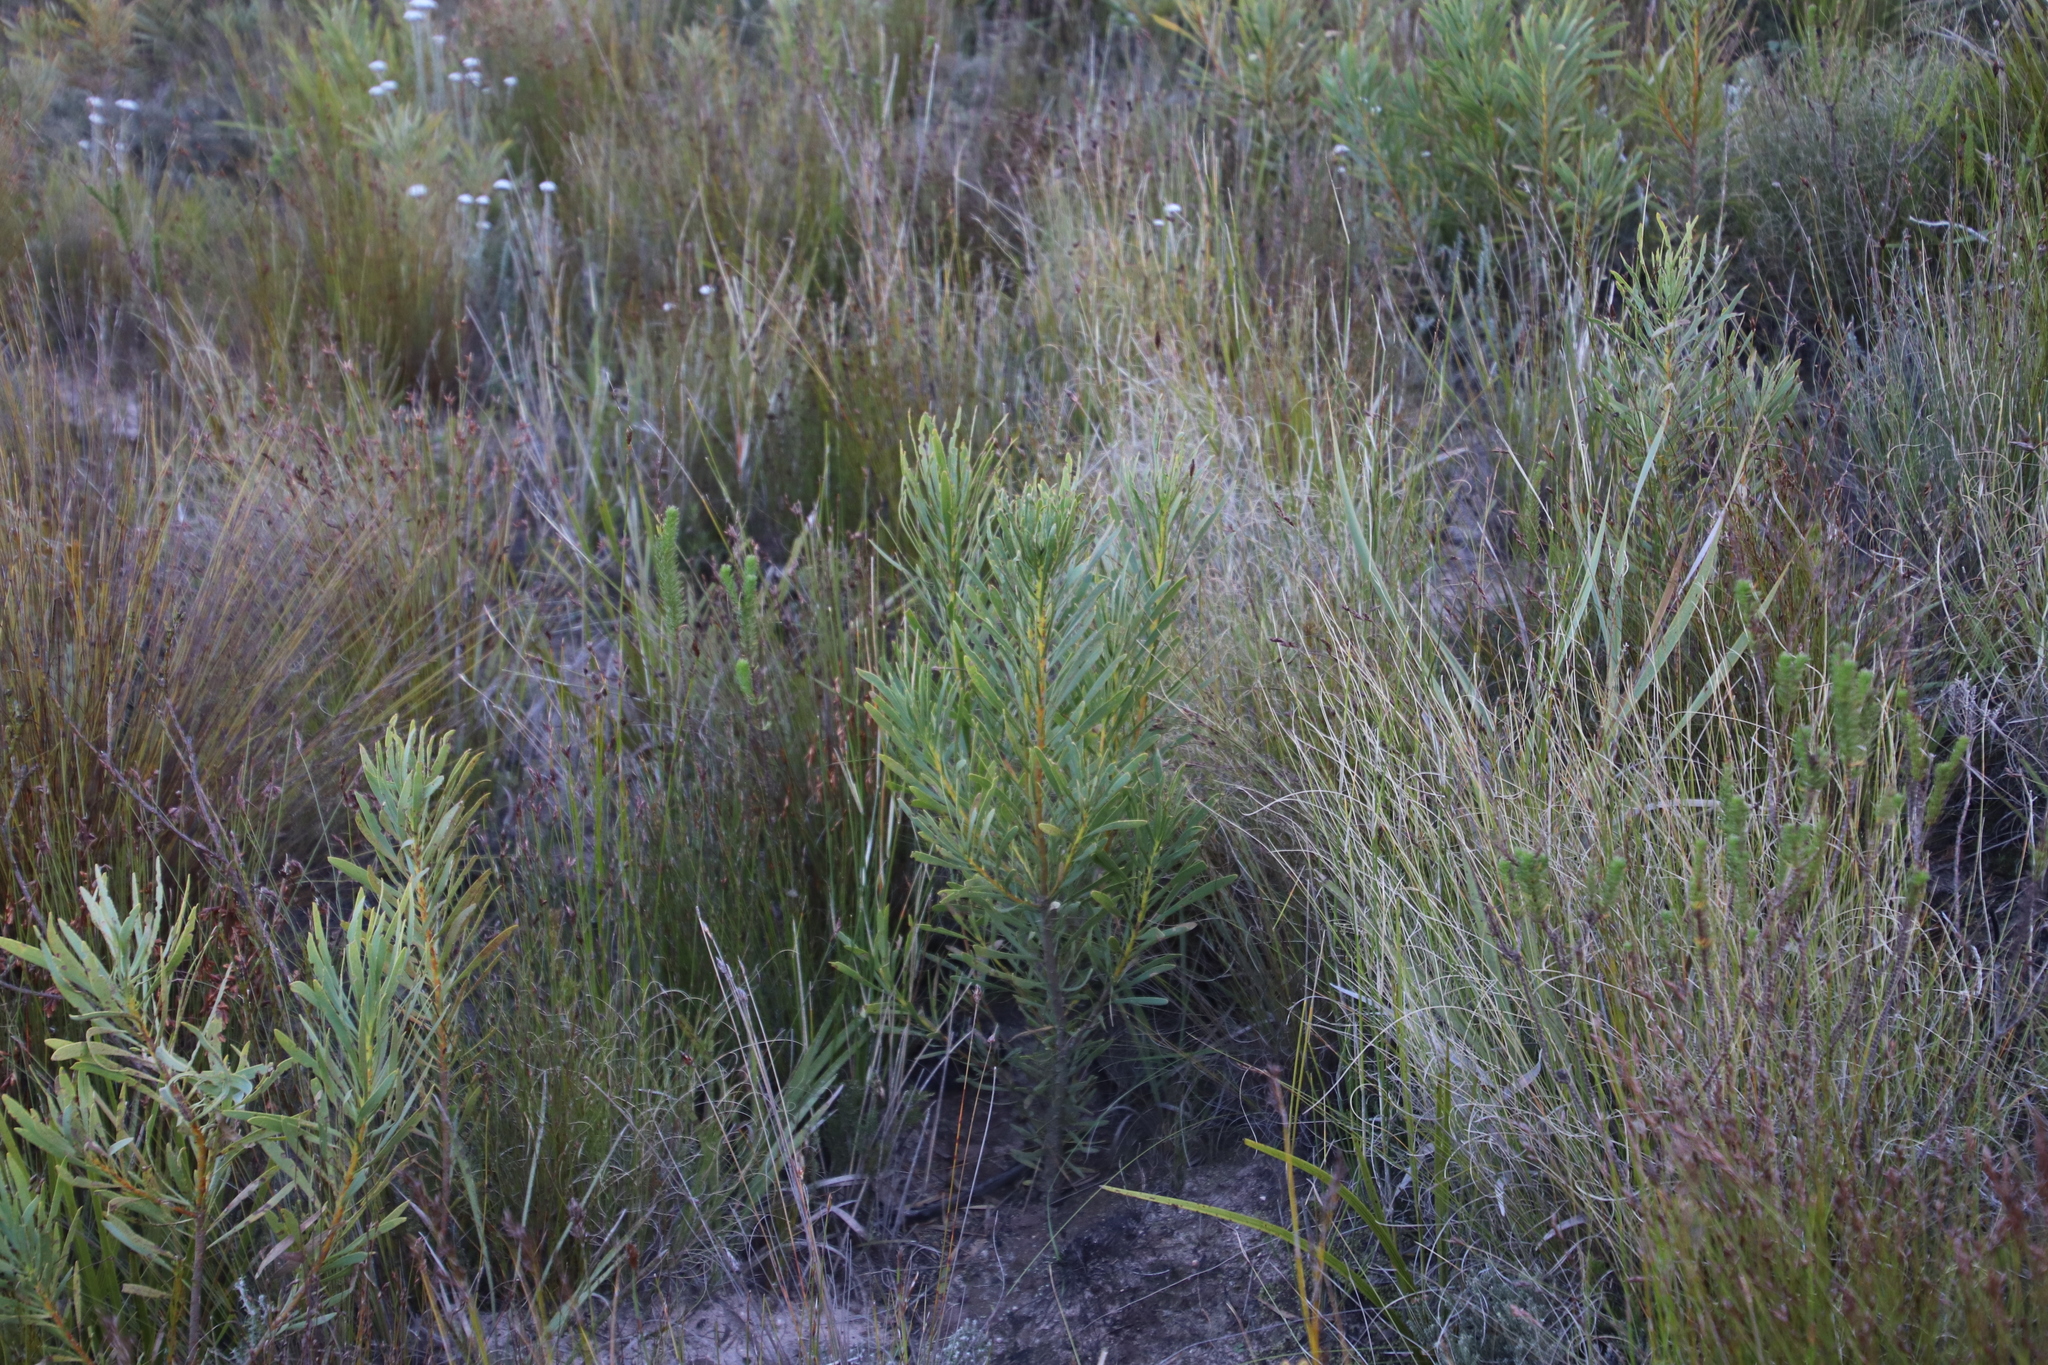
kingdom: Plantae
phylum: Tracheophyta
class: Magnoliopsida
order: Proteales
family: Proteaceae
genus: Protea
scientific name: Protea repens
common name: Sugarbush
